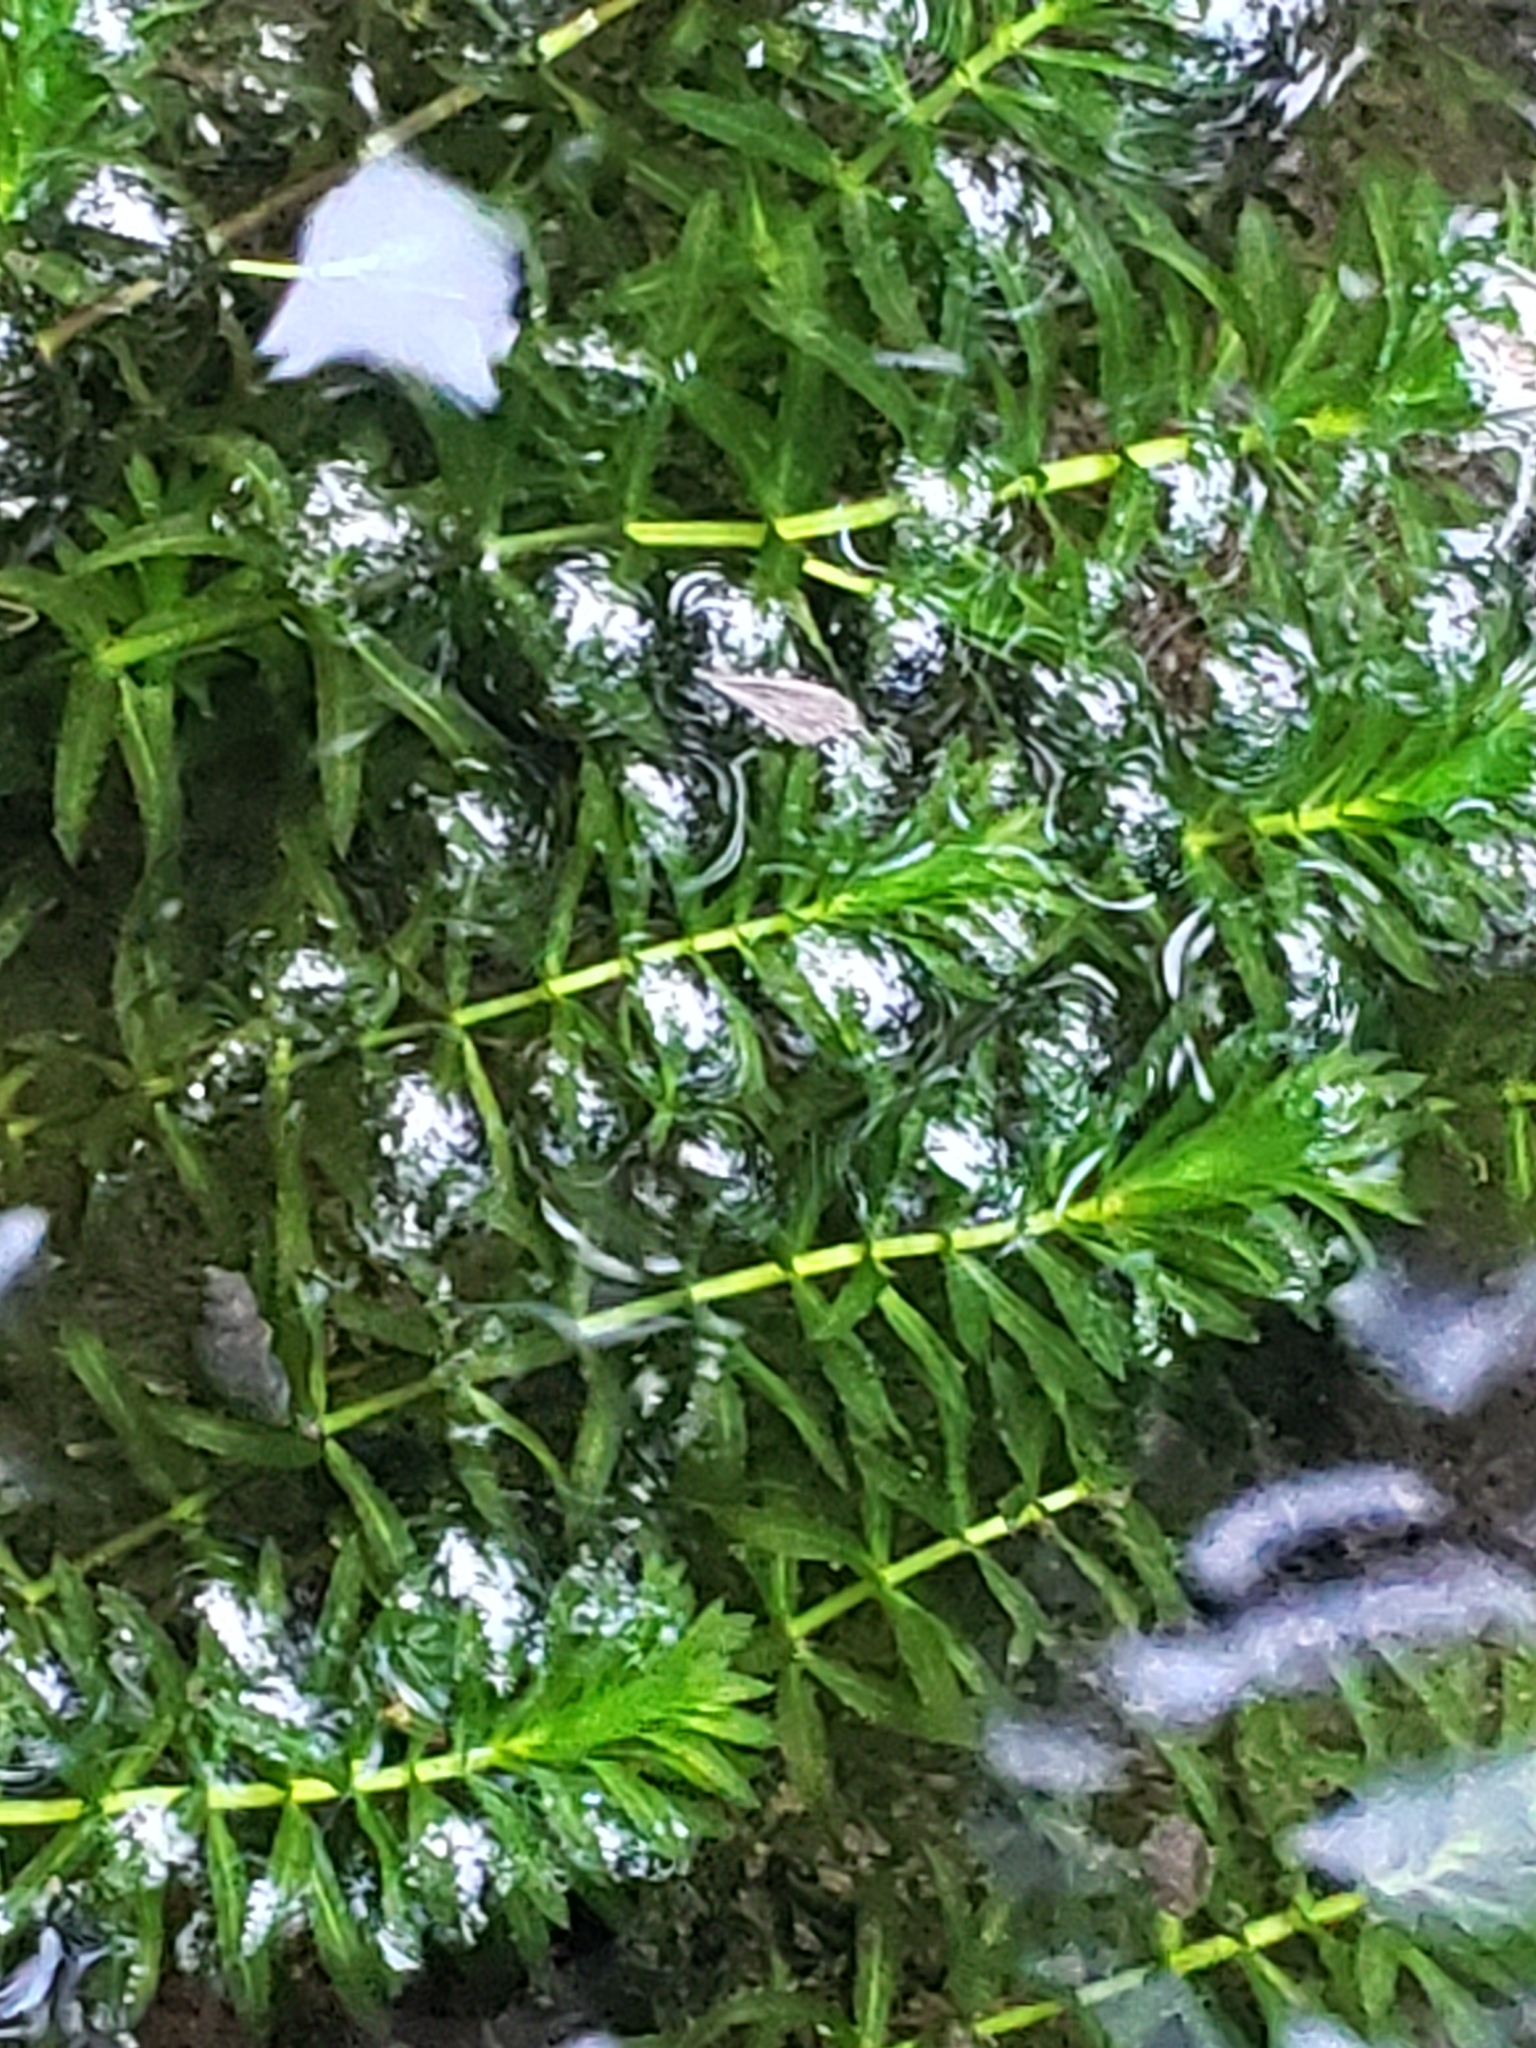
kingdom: Plantae
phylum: Tracheophyta
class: Liliopsida
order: Alismatales
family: Hydrocharitaceae
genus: Hydrilla
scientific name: Hydrilla verticillata
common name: Florida-elodea
